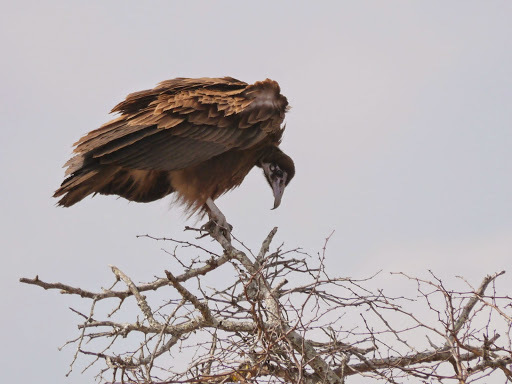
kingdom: Animalia
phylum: Chordata
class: Aves
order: Accipitriformes
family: Accipitridae
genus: Necrosyrtes
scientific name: Necrosyrtes monachus
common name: Hooded vulture
